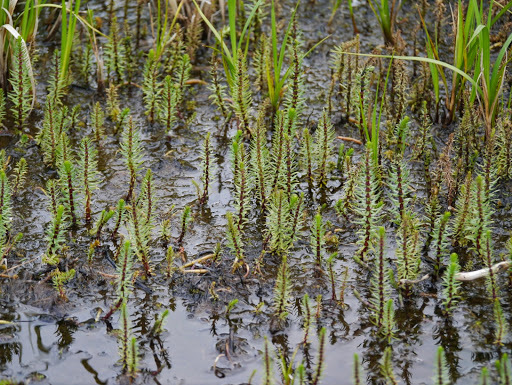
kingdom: Plantae
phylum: Tracheophyta
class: Magnoliopsida
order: Lamiales
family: Plantaginaceae
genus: Hippuris
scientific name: Hippuris vulgaris
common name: Mare's-tail
